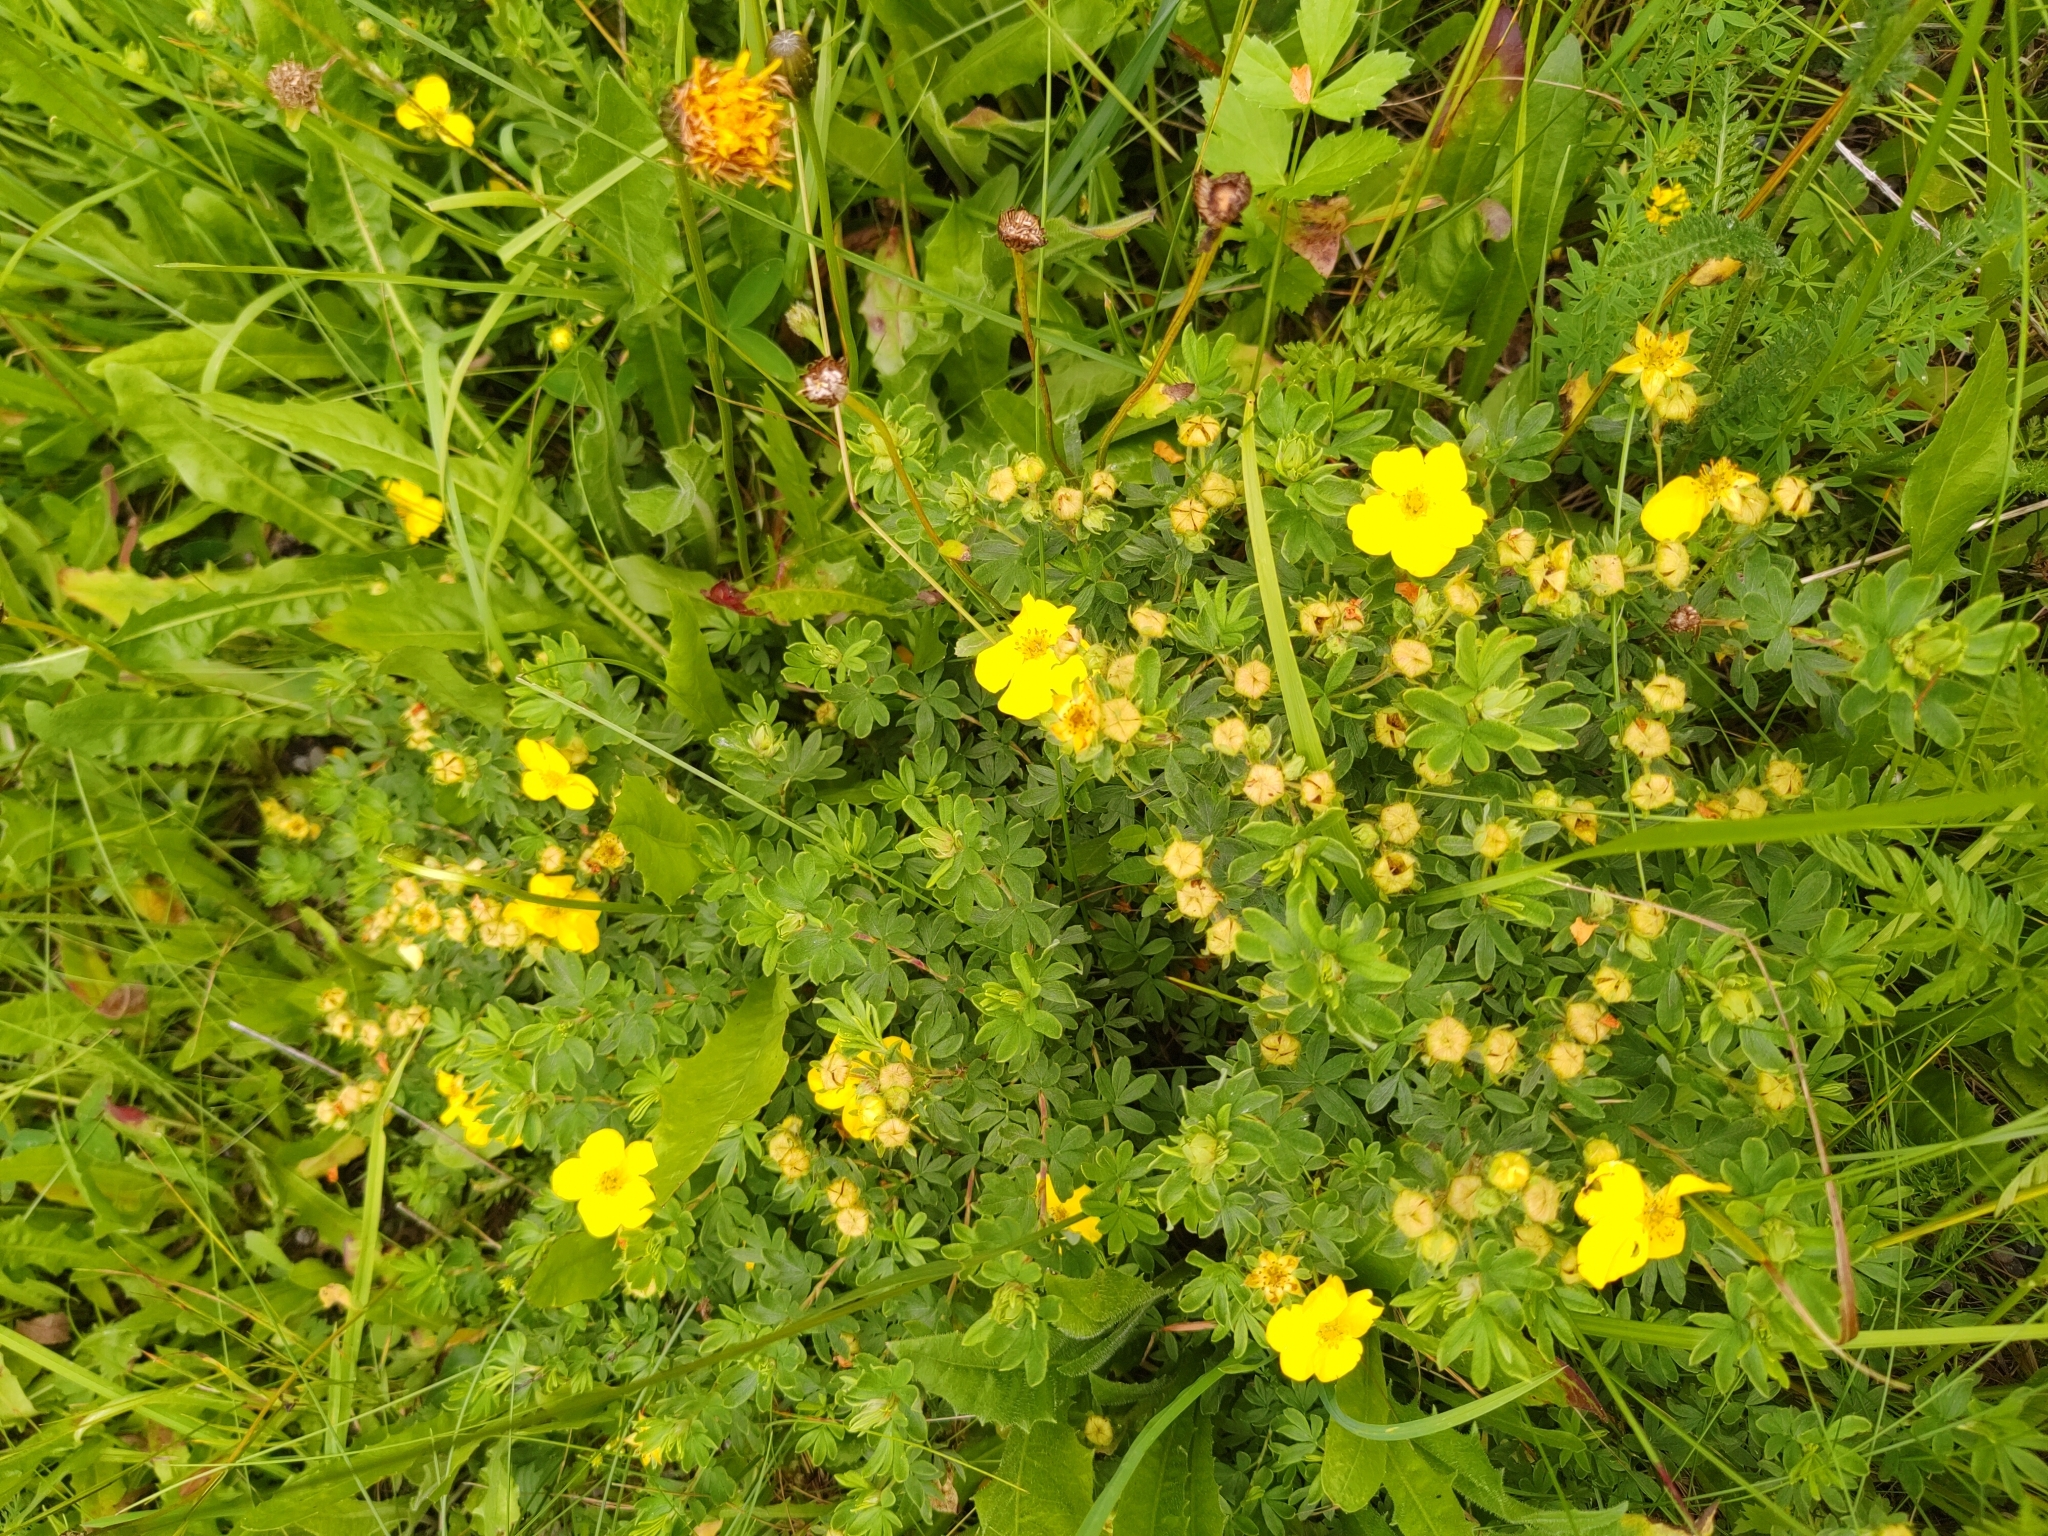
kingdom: Plantae
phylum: Tracheophyta
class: Magnoliopsida
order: Rosales
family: Rosaceae
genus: Dasiphora
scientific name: Dasiphora fruticosa
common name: Shrubby cinquefoil
